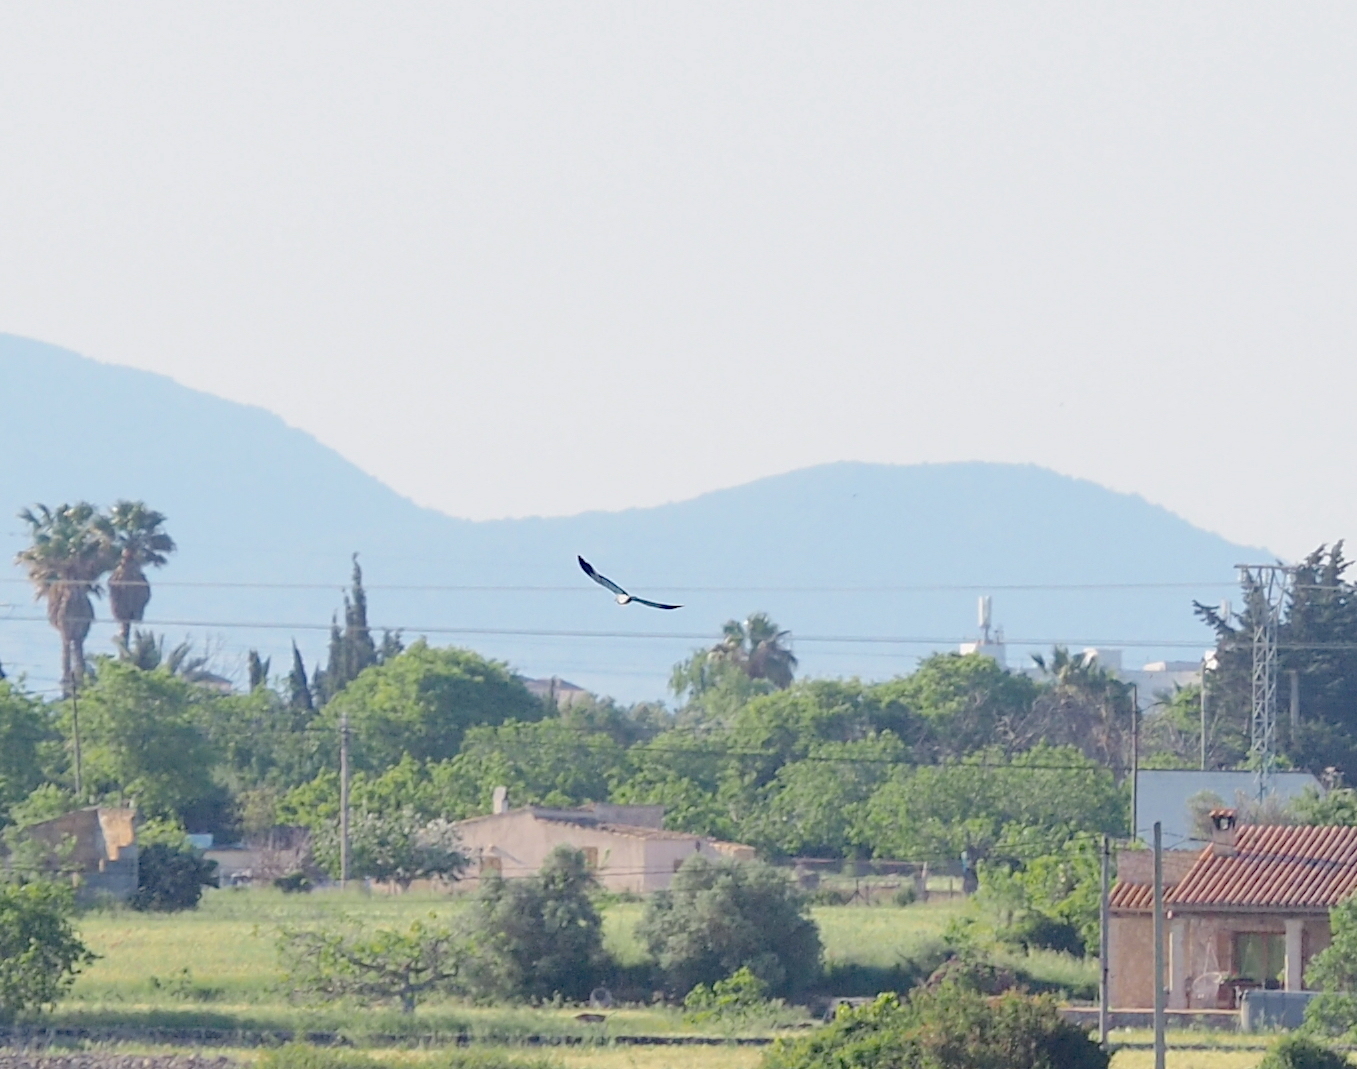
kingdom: Animalia
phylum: Chordata
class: Aves
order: Coraciiformes
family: Coraciidae
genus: Coracias
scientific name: Coracias garrulus
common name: European roller
